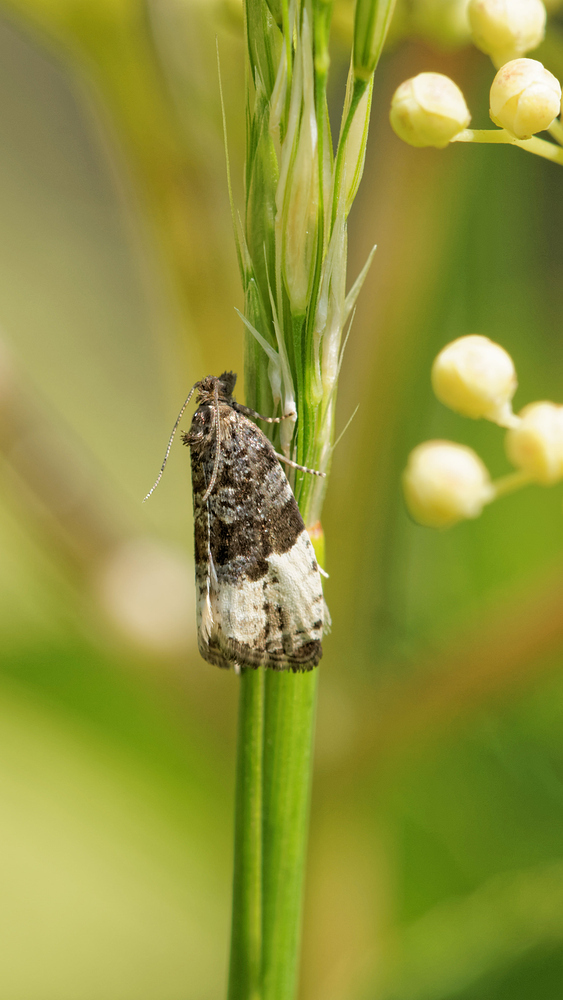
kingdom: Animalia
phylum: Arthropoda
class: Insecta
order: Lepidoptera
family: Tortricidae
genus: Hedya
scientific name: Hedya pruniana
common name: Plum tortrix
